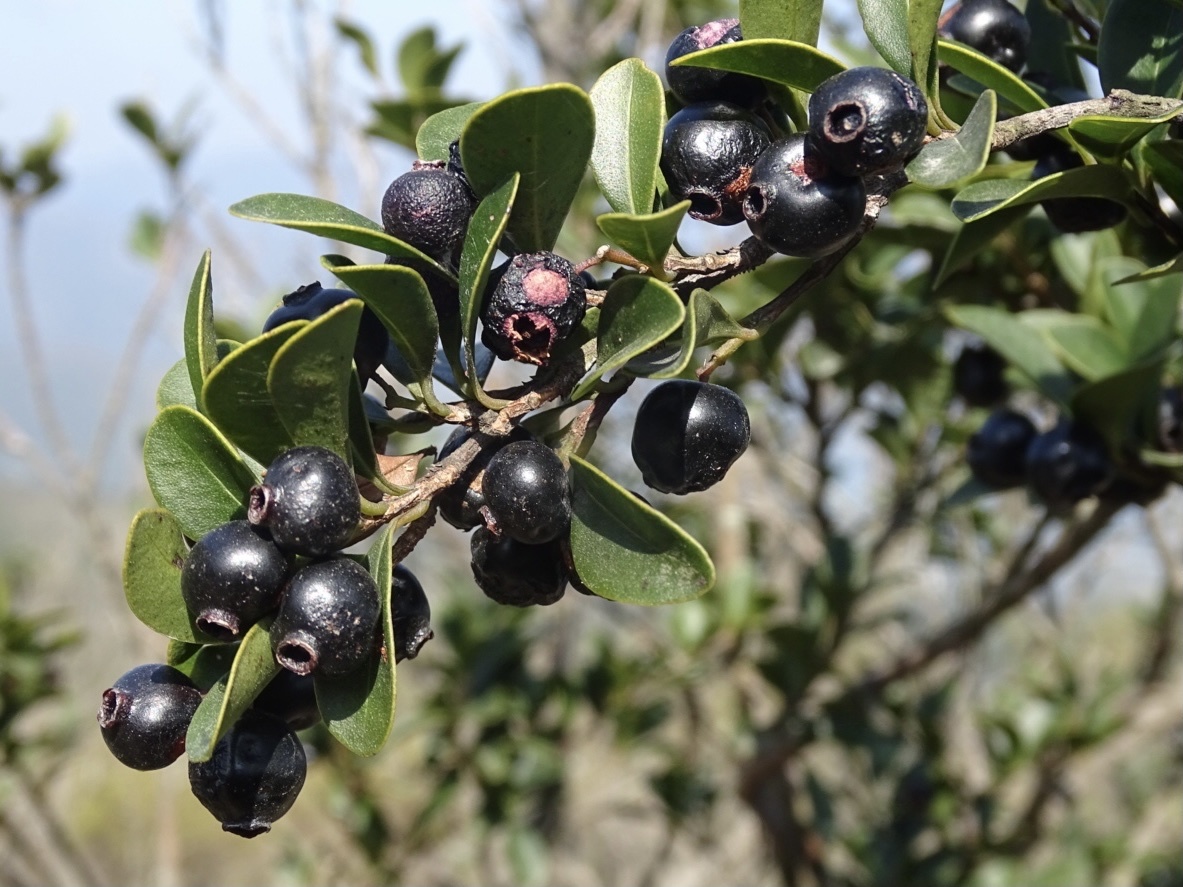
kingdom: Plantae
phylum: Tracheophyta
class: Magnoliopsida
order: Myrtales
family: Myrtaceae
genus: Syzygium
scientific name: Syzygium buxifolium
